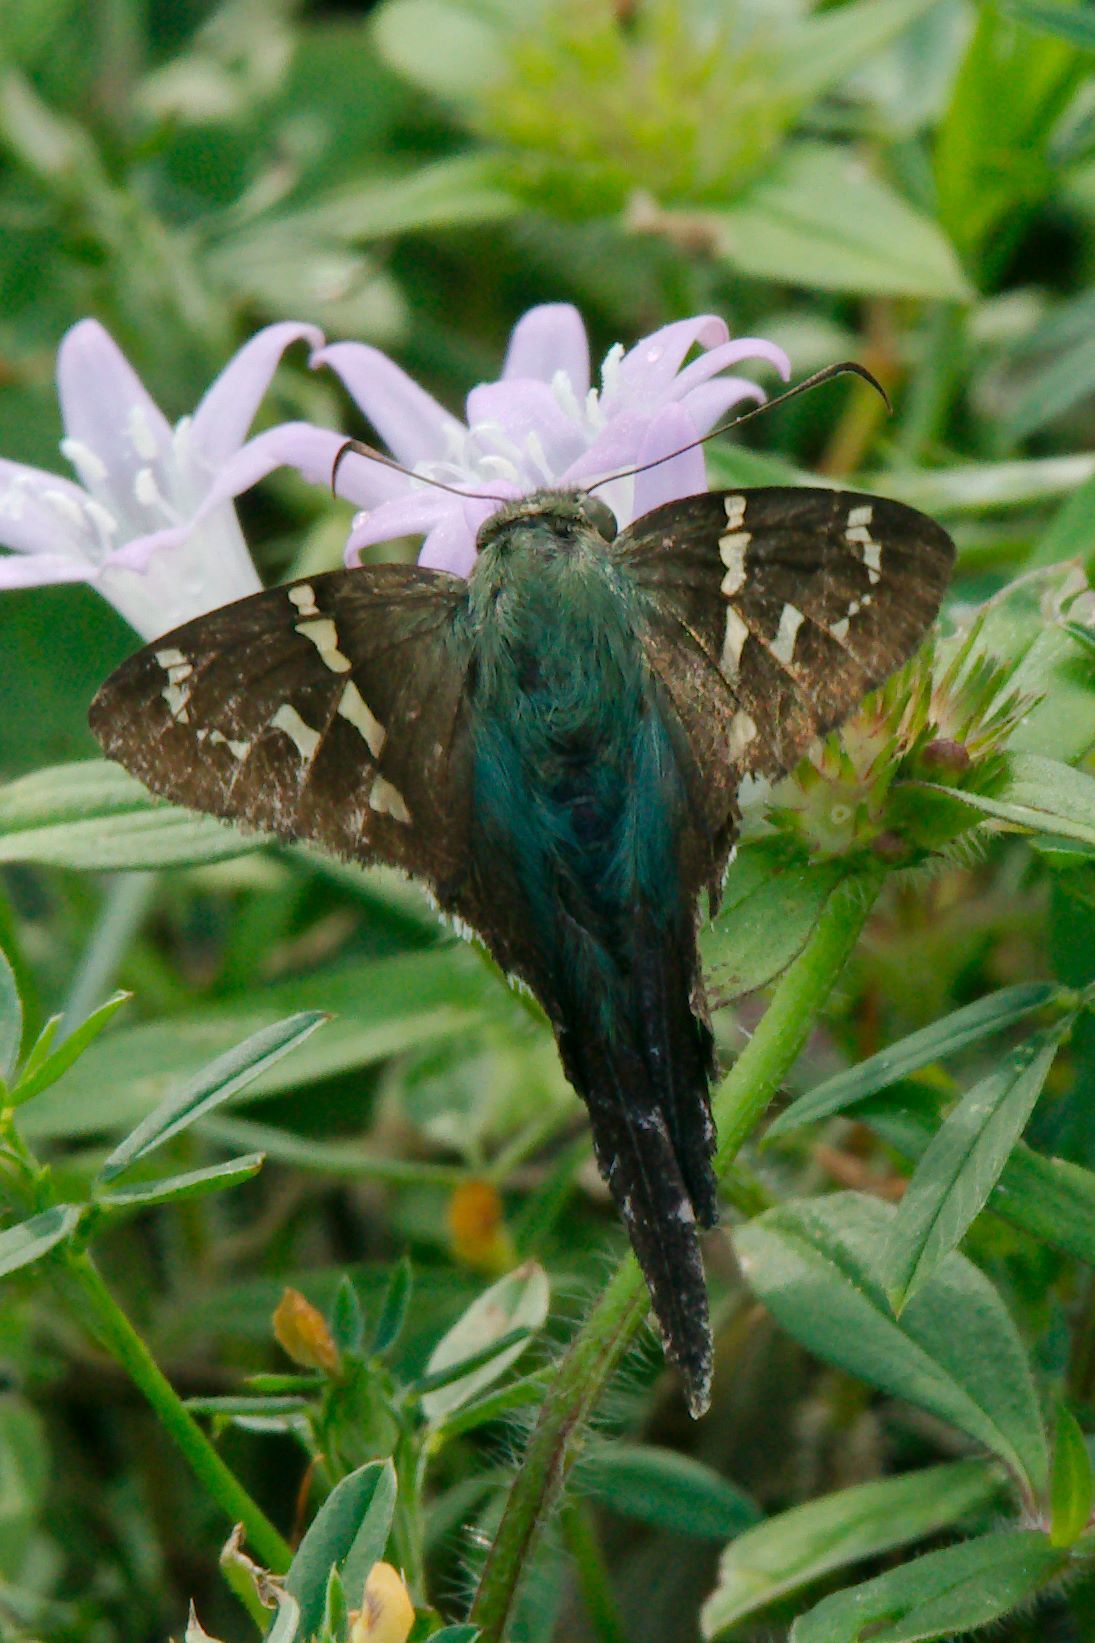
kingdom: Animalia
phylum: Arthropoda
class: Insecta
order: Lepidoptera
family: Hesperiidae
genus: Urbanus
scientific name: Urbanus proteus
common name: Long-tailed skipper
